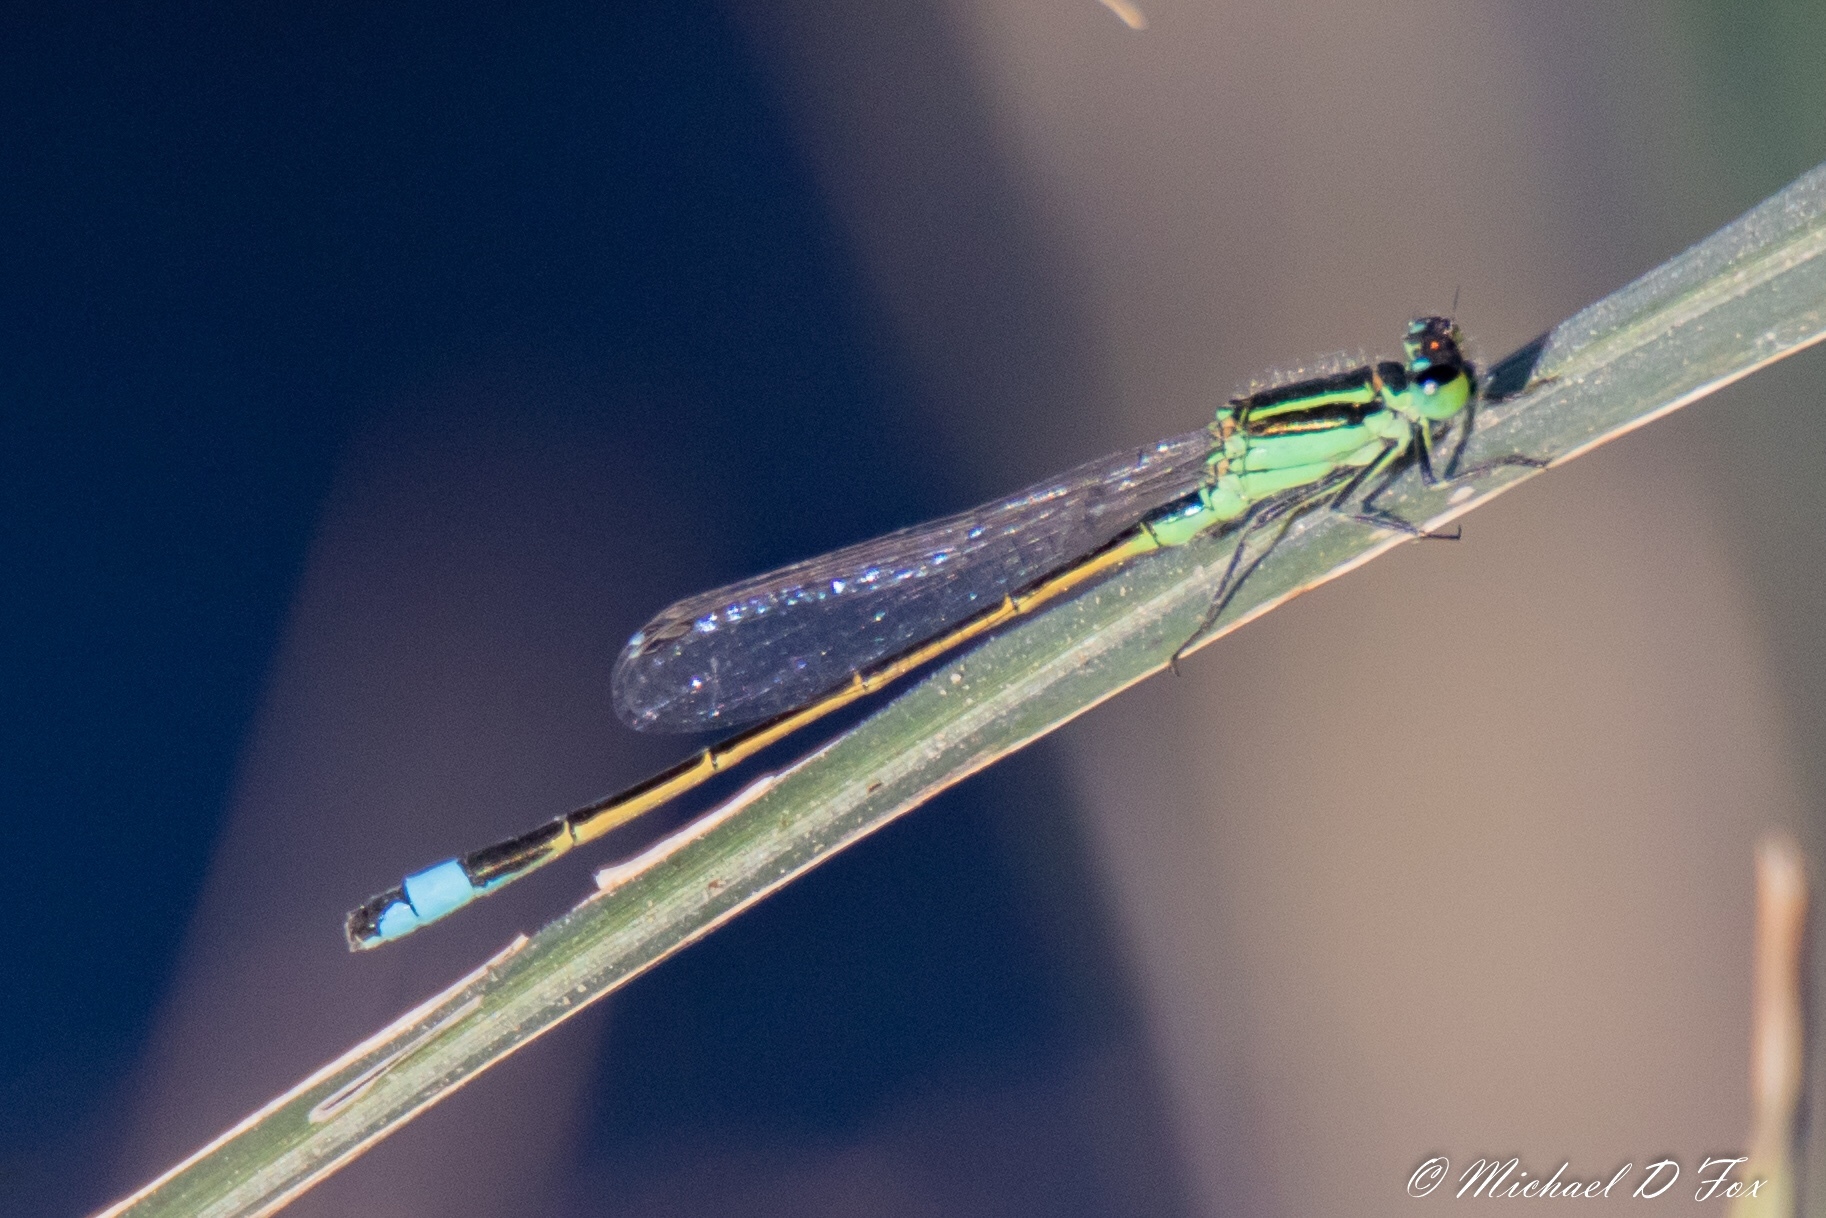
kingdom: Animalia
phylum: Arthropoda
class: Insecta
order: Odonata
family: Coenagrionidae
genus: Ischnura
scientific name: Ischnura ramburii
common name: Rambur's forktail
